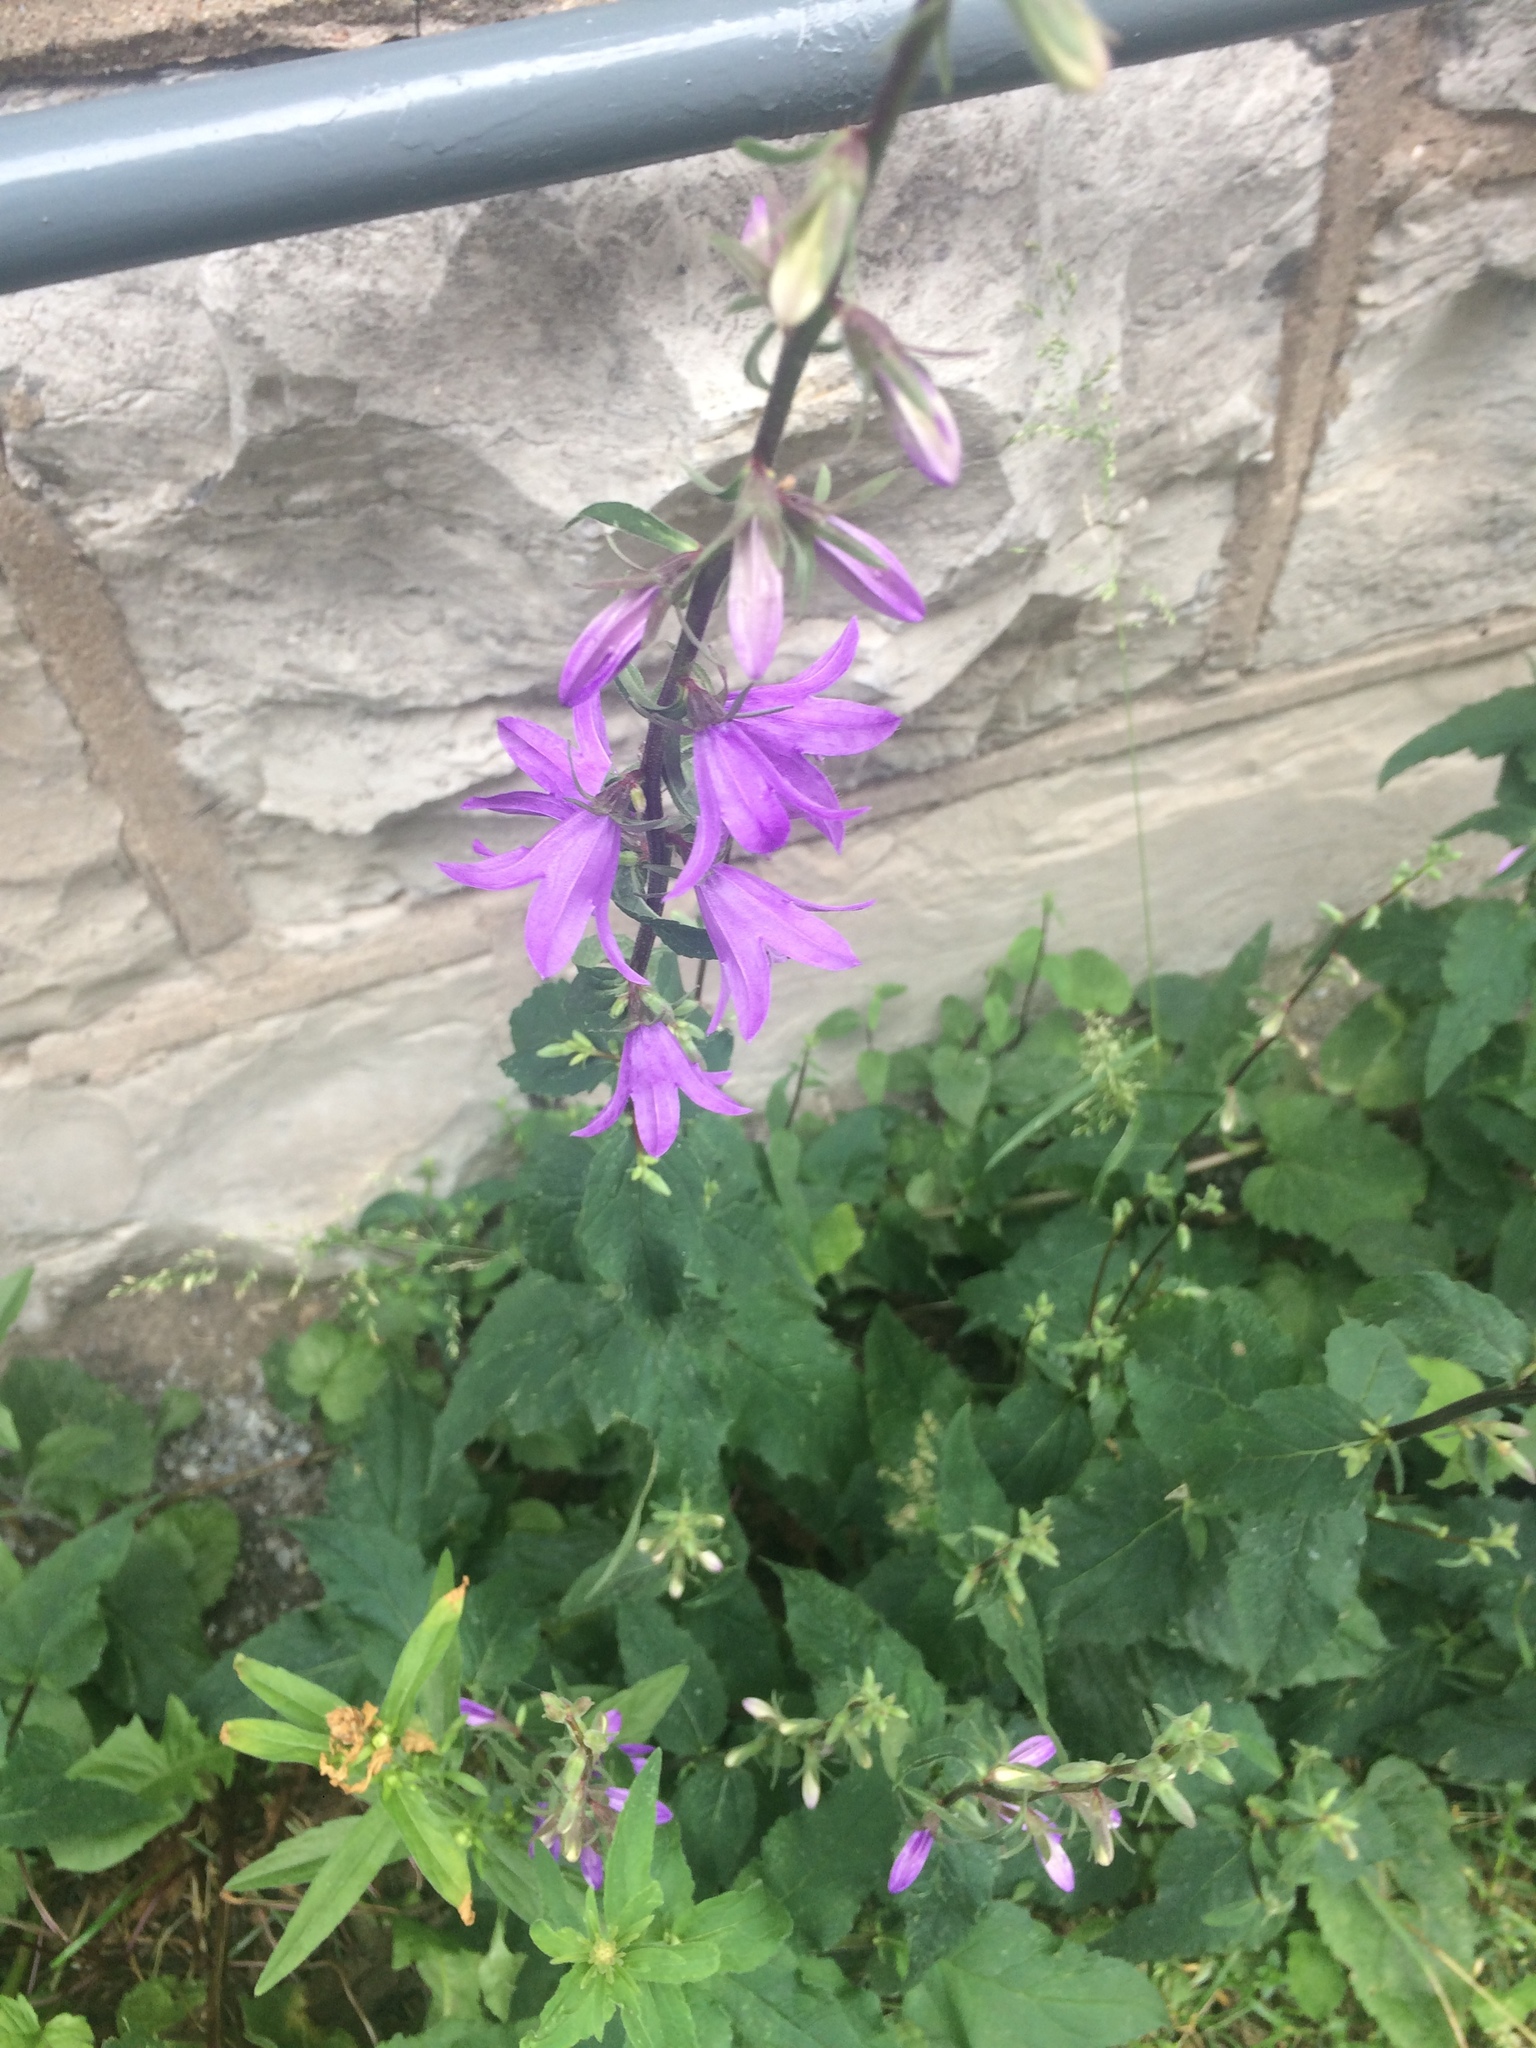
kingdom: Plantae
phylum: Tracheophyta
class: Magnoliopsida
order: Asterales
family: Campanulaceae
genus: Campanula
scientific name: Campanula rapunculoides
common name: Creeping bellflower
